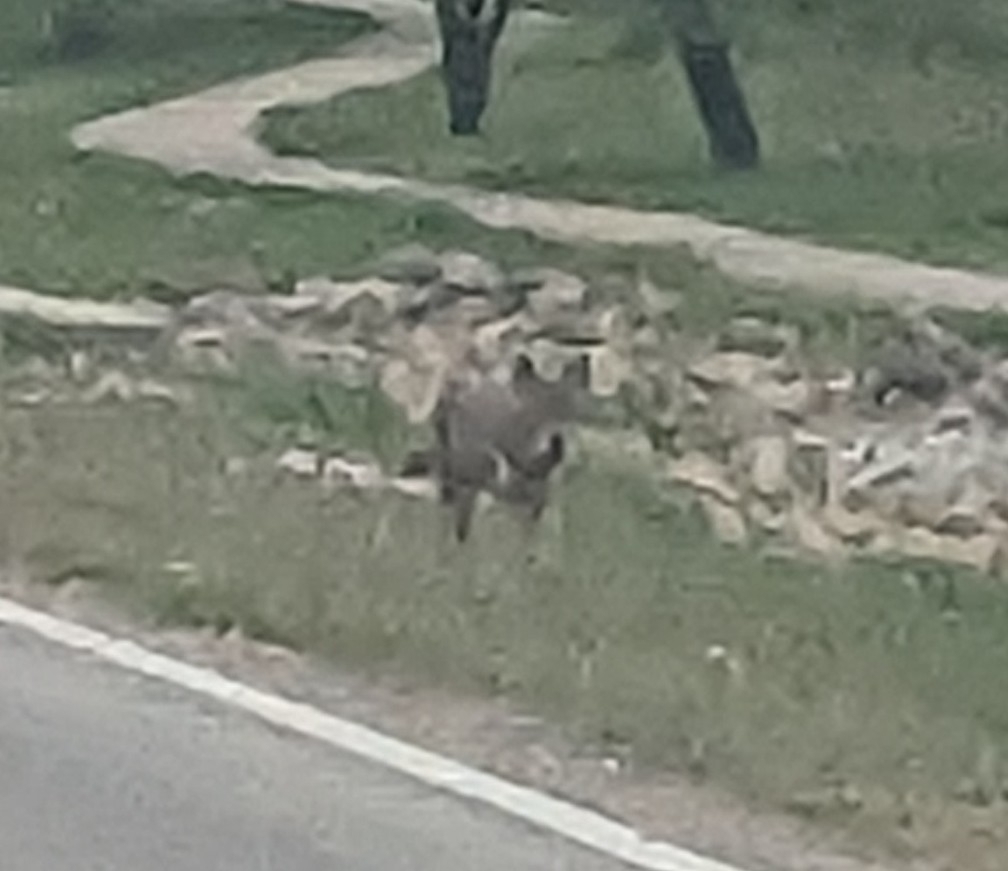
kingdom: Animalia
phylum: Chordata
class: Mammalia
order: Carnivora
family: Canidae
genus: Canis
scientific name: Canis latrans
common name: Coyote
